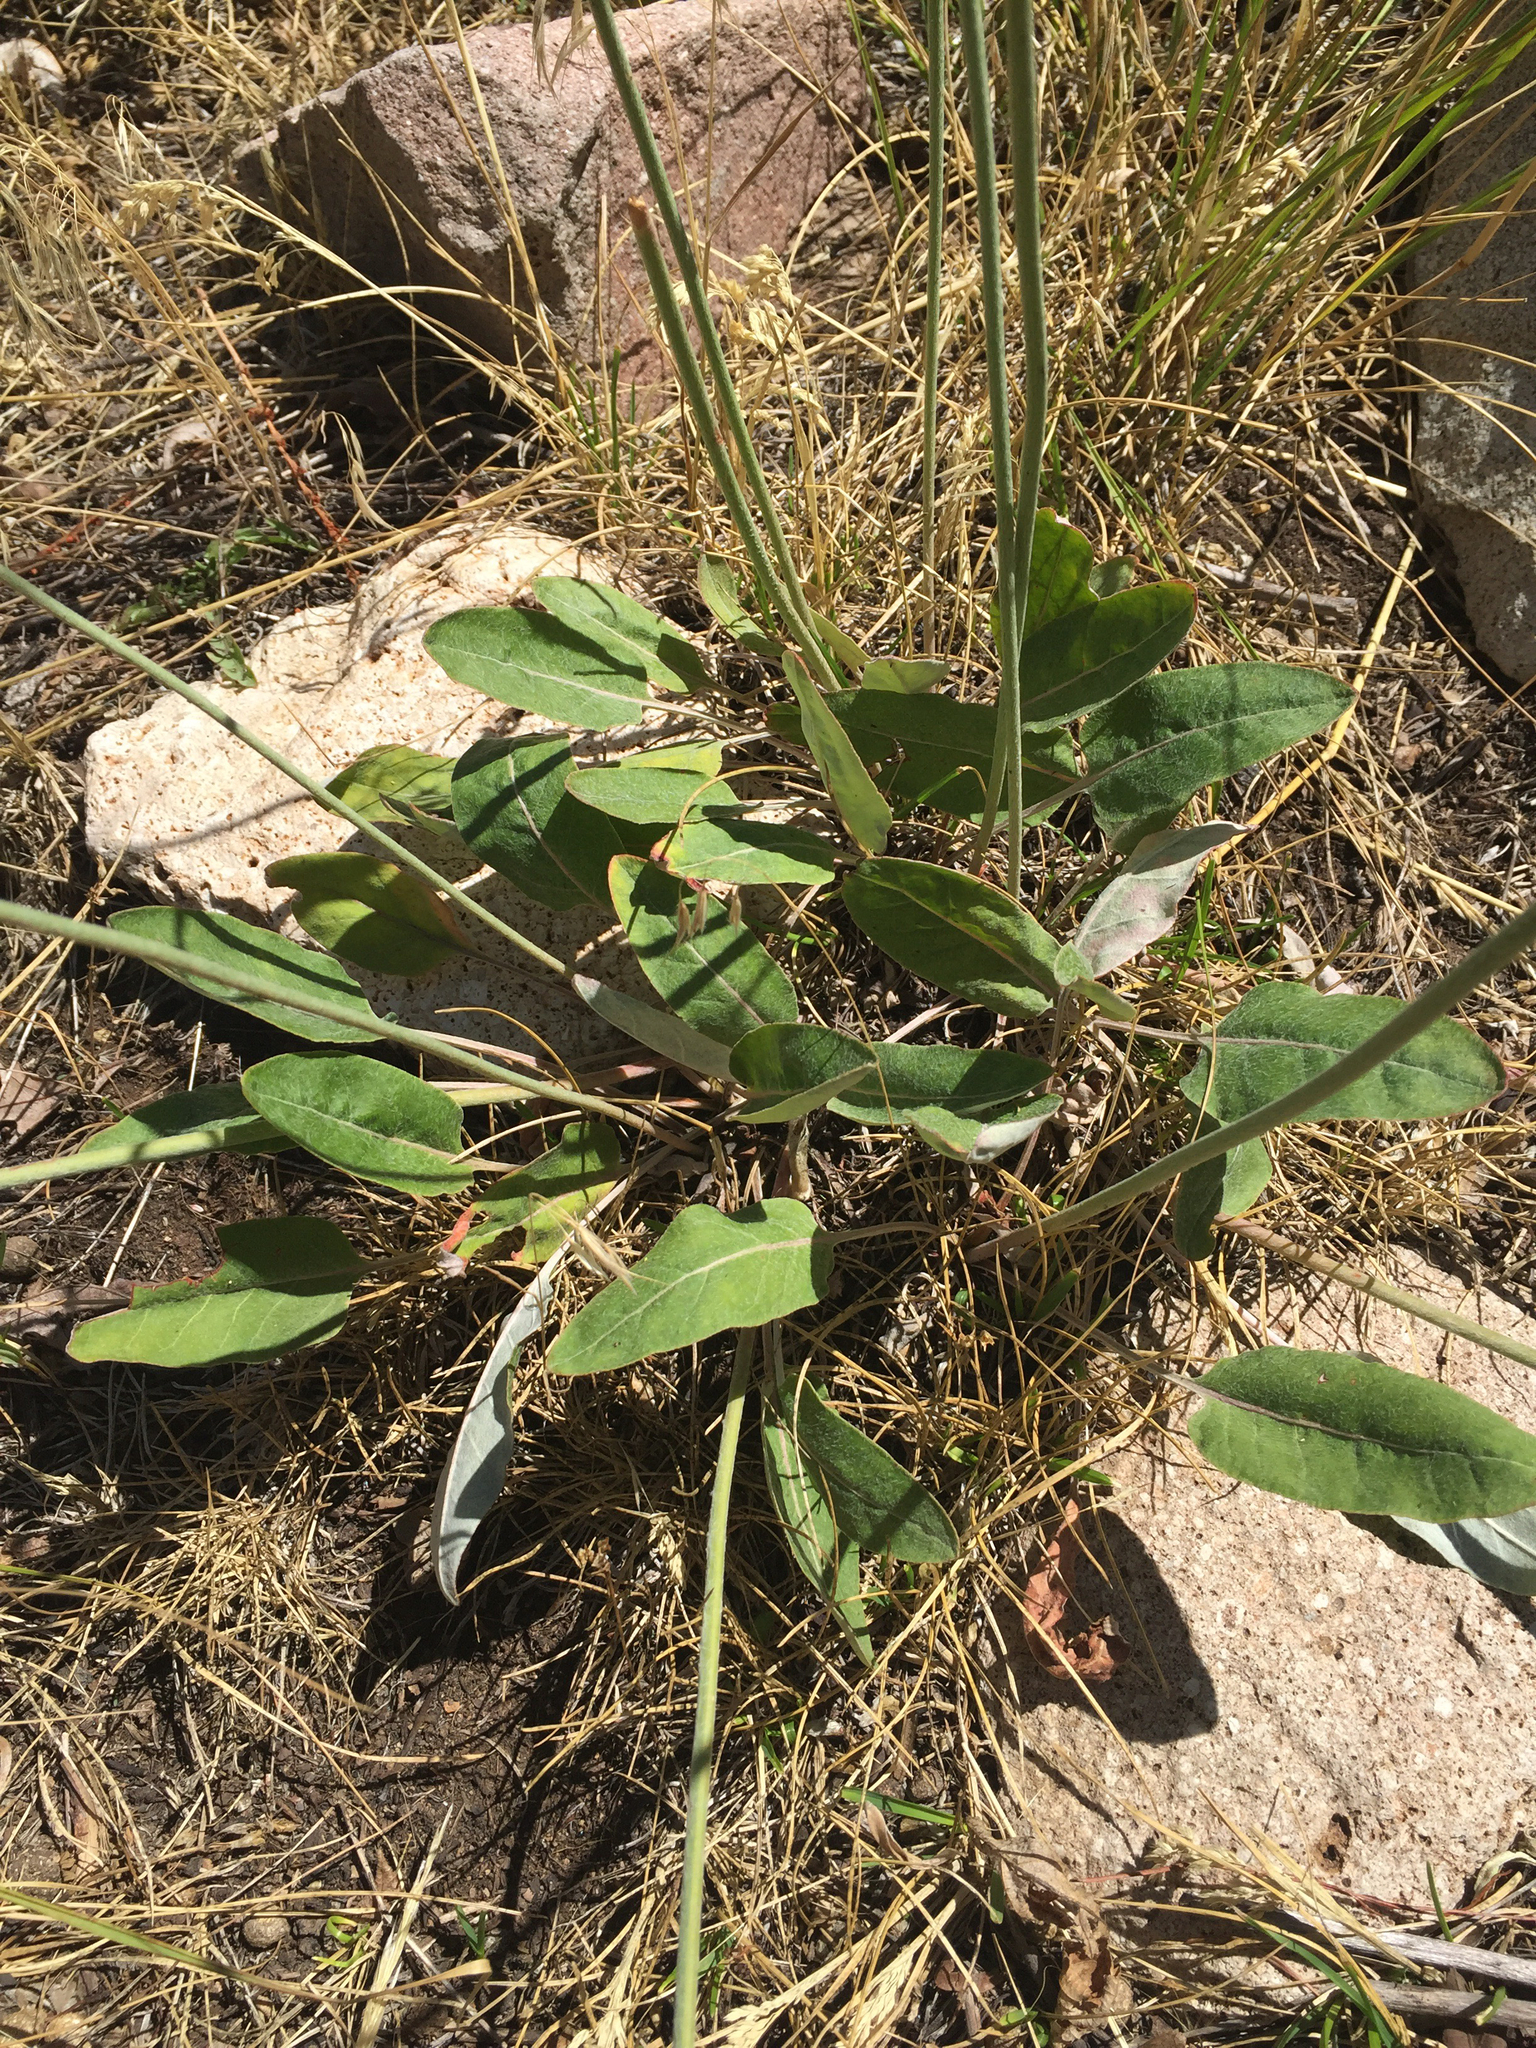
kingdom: Plantae
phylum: Tracheophyta
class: Magnoliopsida
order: Caryophyllales
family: Polygonaceae
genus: Eriogonum
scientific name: Eriogonum racemosum
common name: Redroot wild buckwheat
